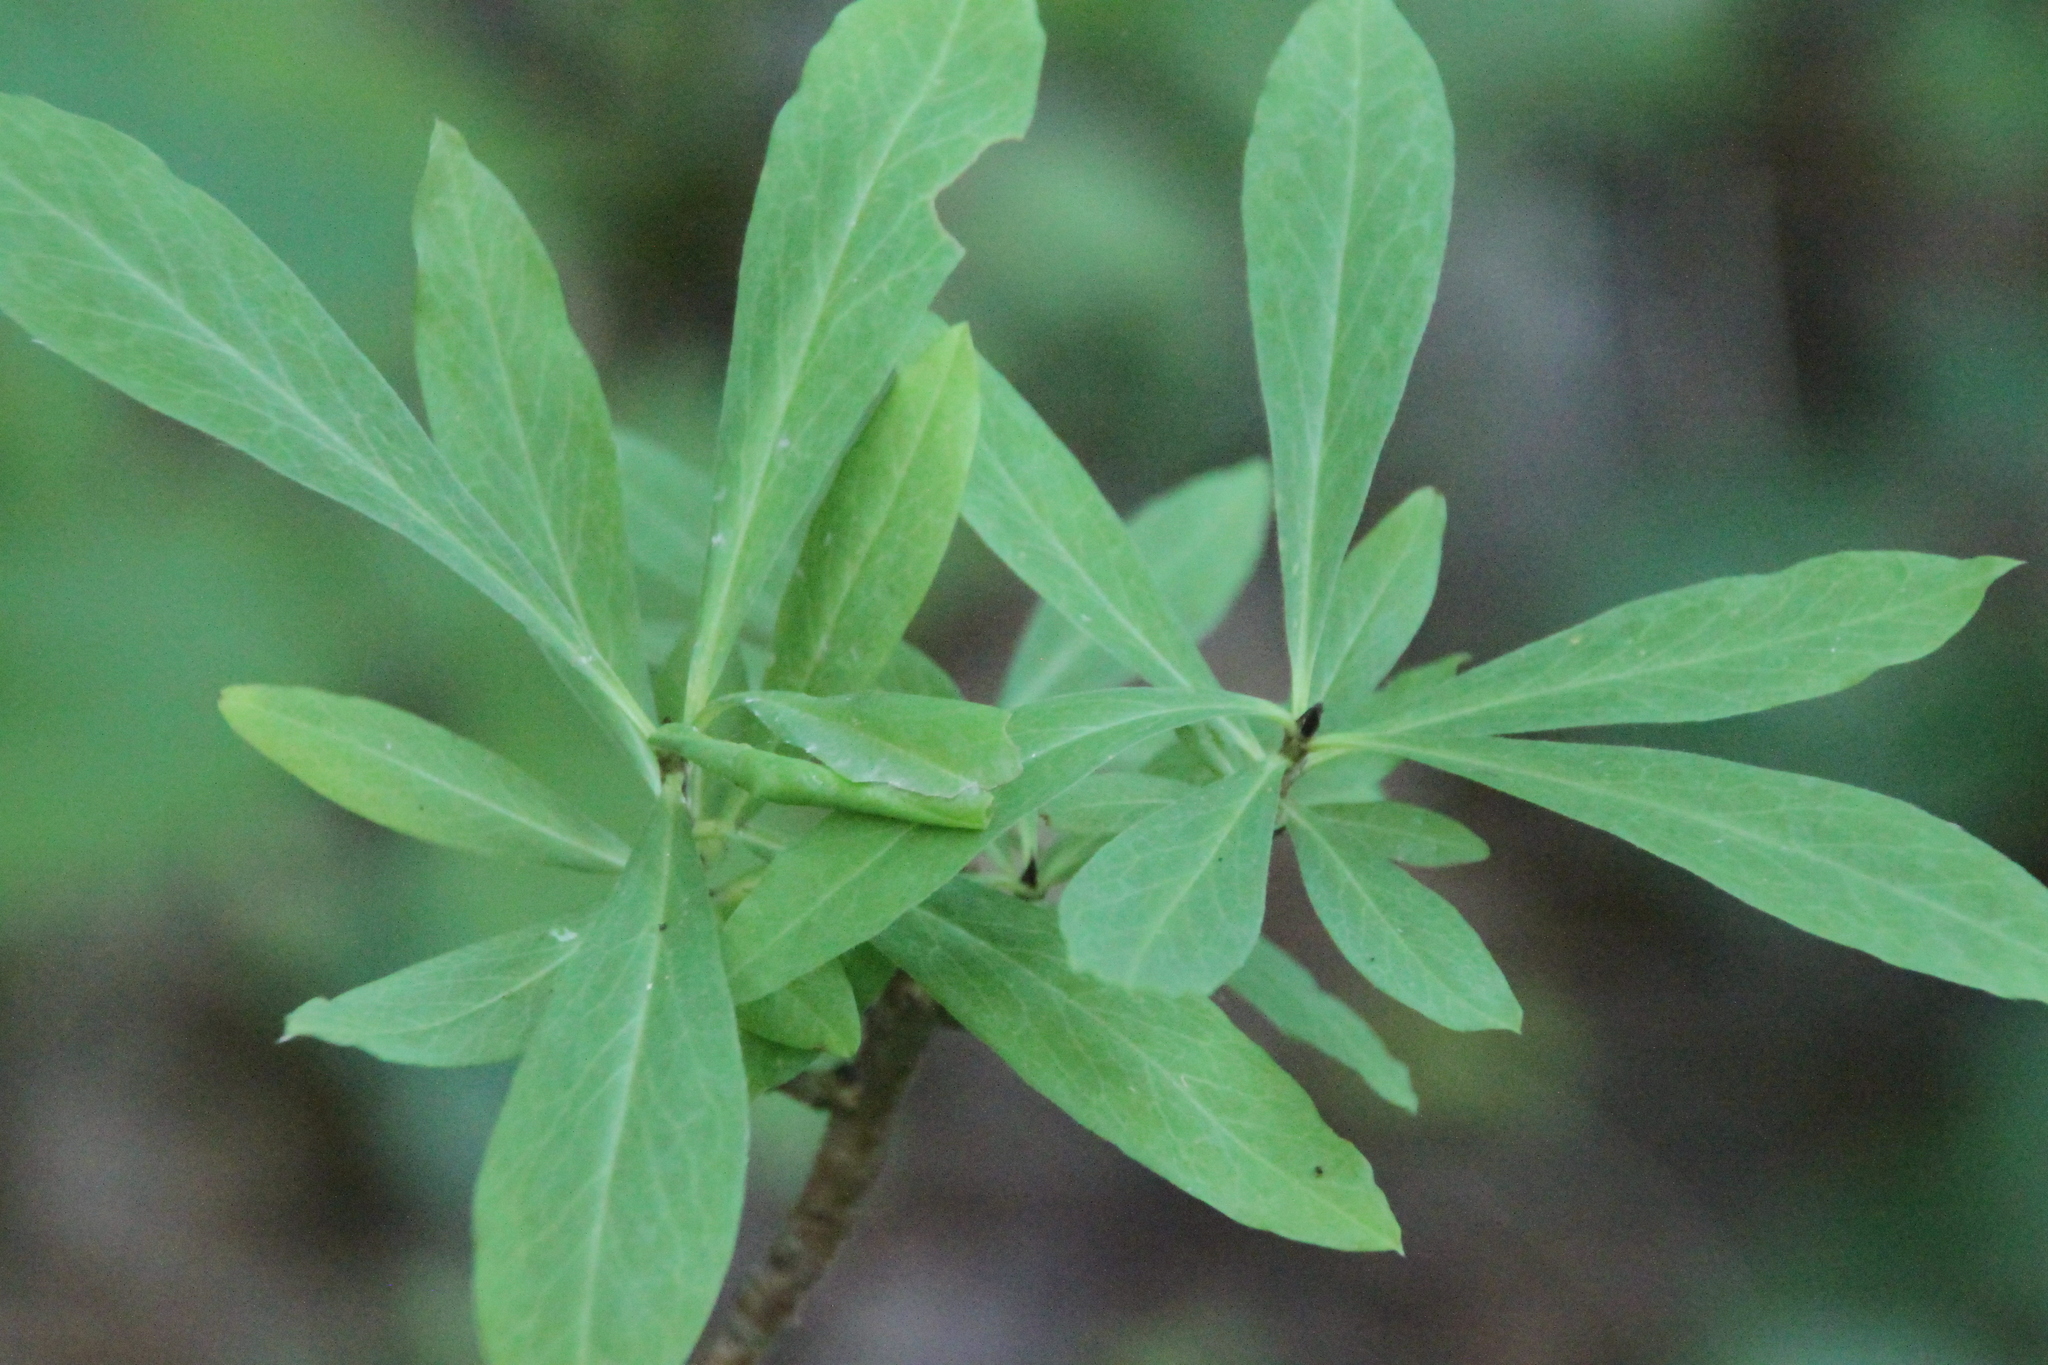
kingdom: Plantae
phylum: Tracheophyta
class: Magnoliopsida
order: Malvales
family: Thymelaeaceae
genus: Daphne
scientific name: Daphne mezereum
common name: Mezereon
